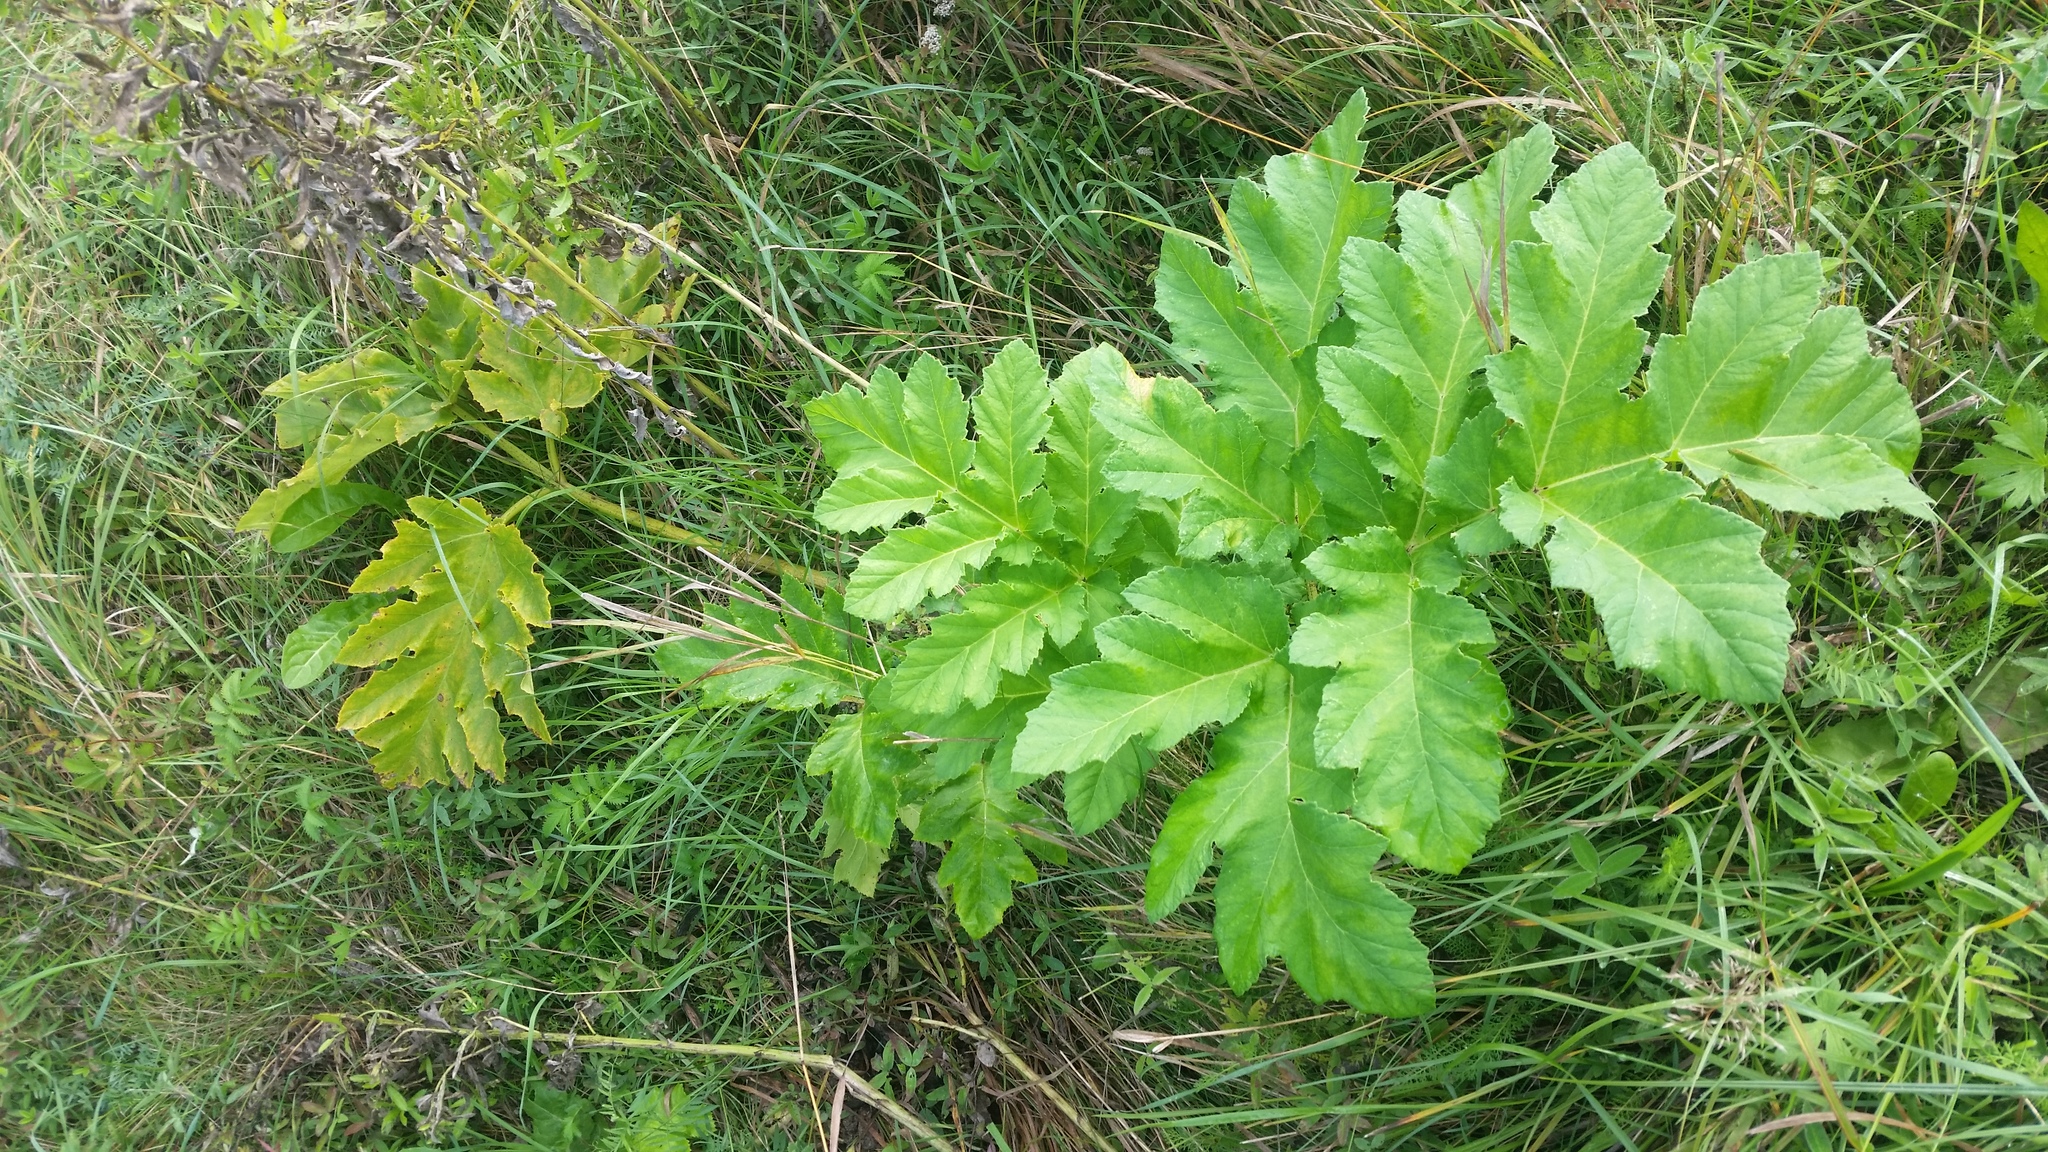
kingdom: Plantae
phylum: Tracheophyta
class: Magnoliopsida
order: Apiales
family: Apiaceae
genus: Heracleum
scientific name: Heracleum sosnowskyi
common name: Sosnowsky's hogweed
